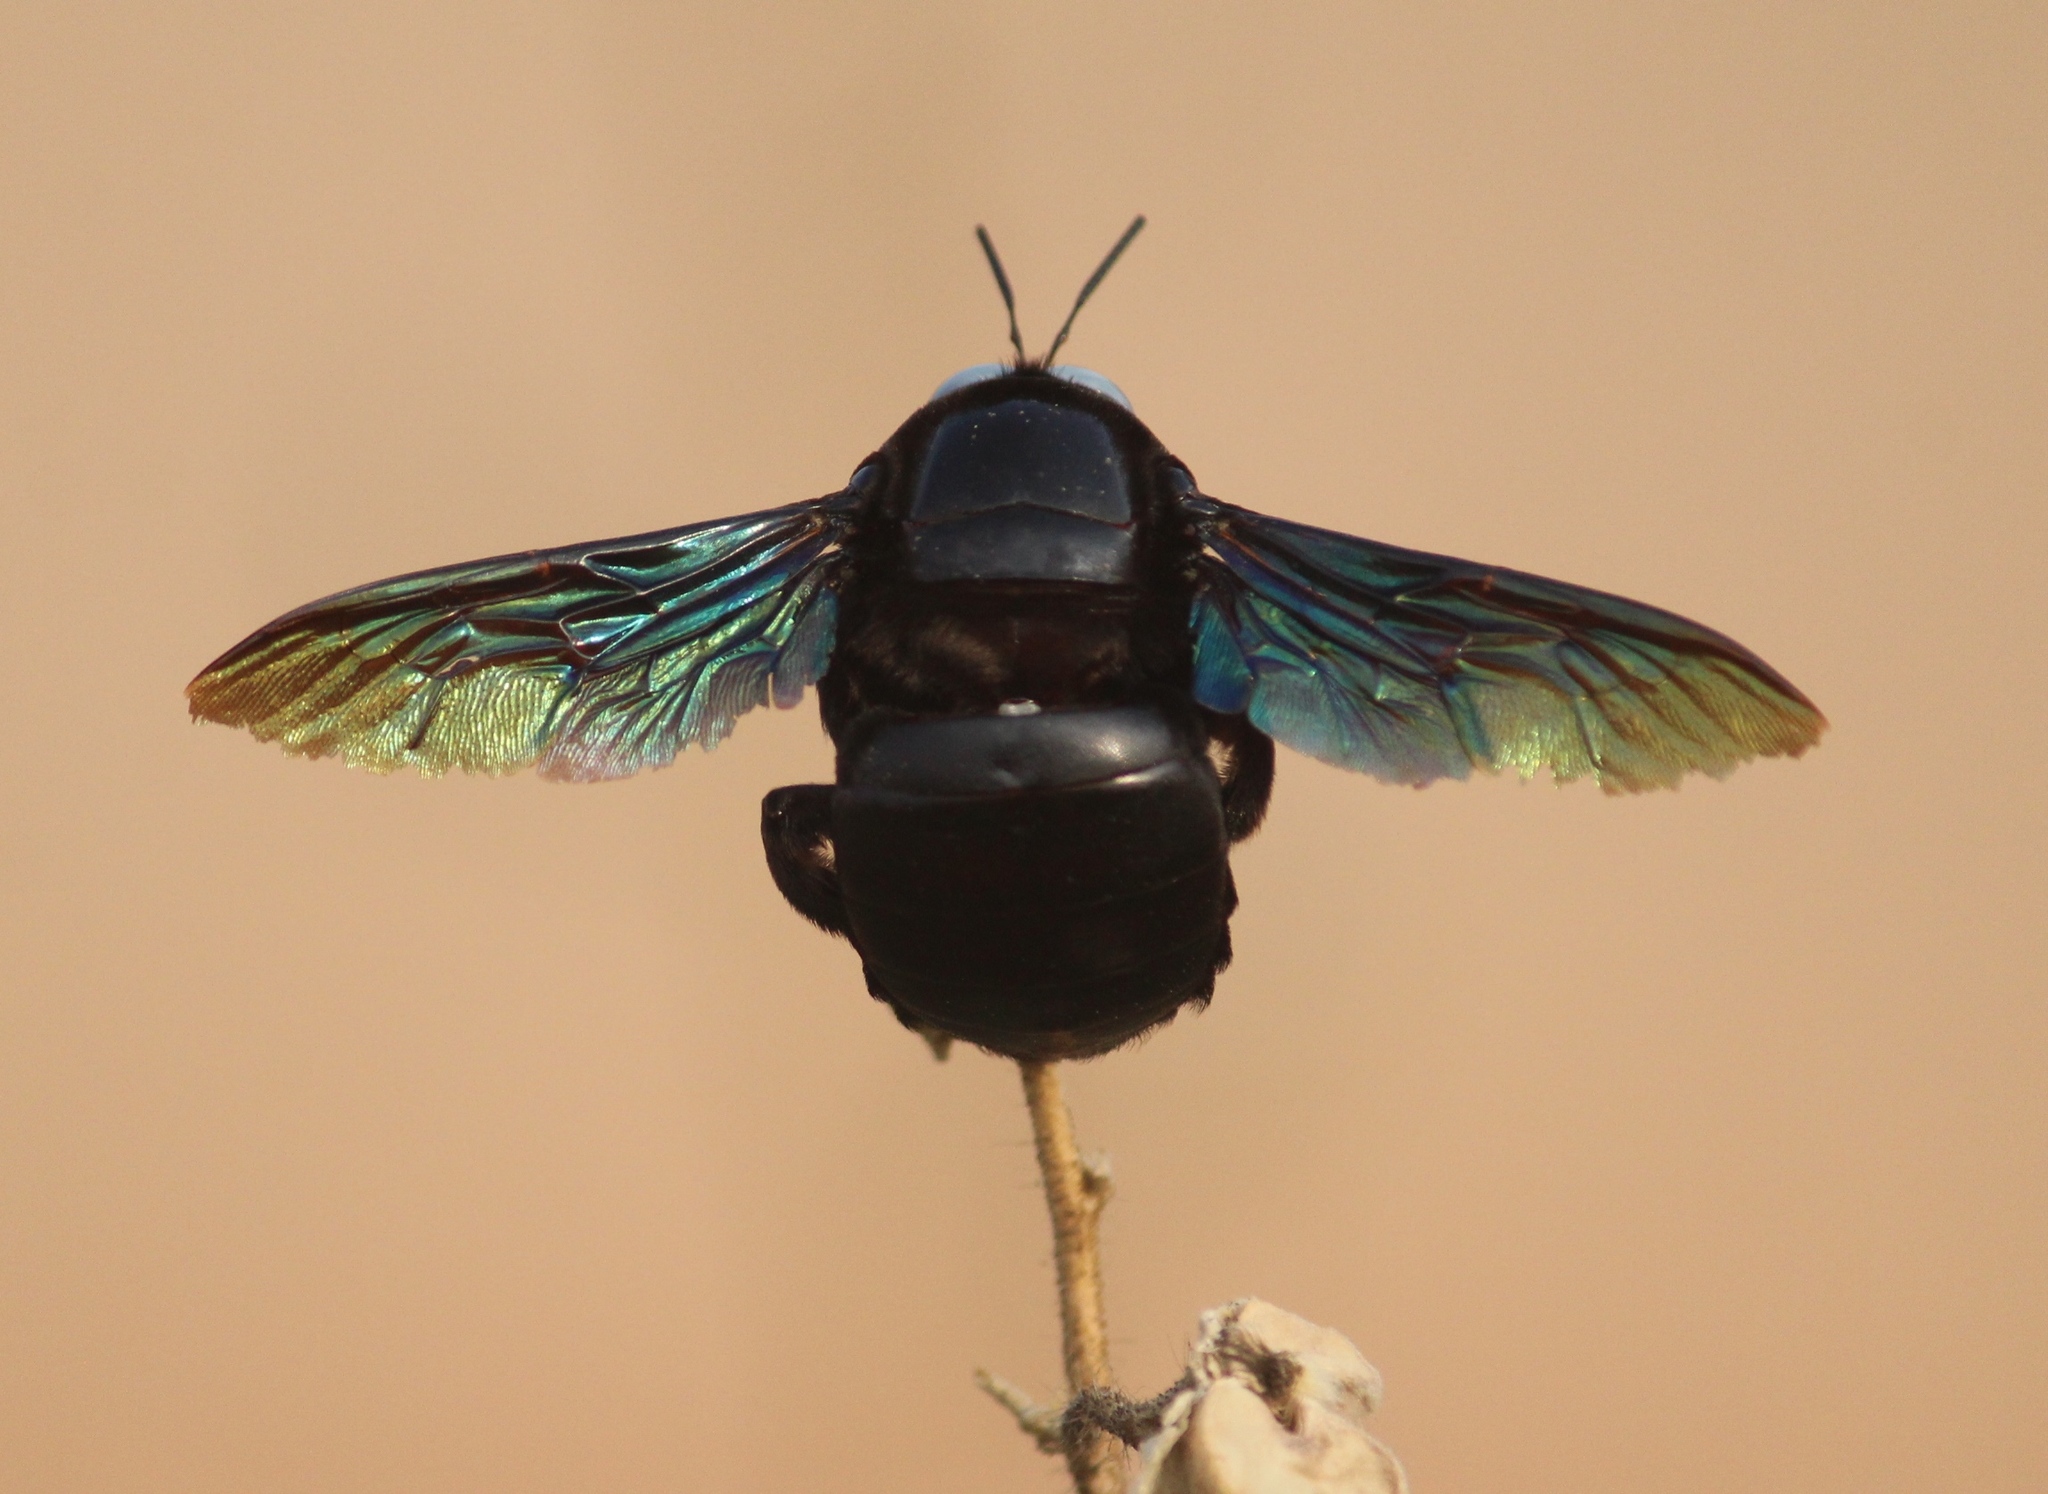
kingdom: Animalia
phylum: Arthropoda
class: Insecta
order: Hymenoptera
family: Apidae
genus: Xylocopa
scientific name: Xylocopa tenuiscapa
